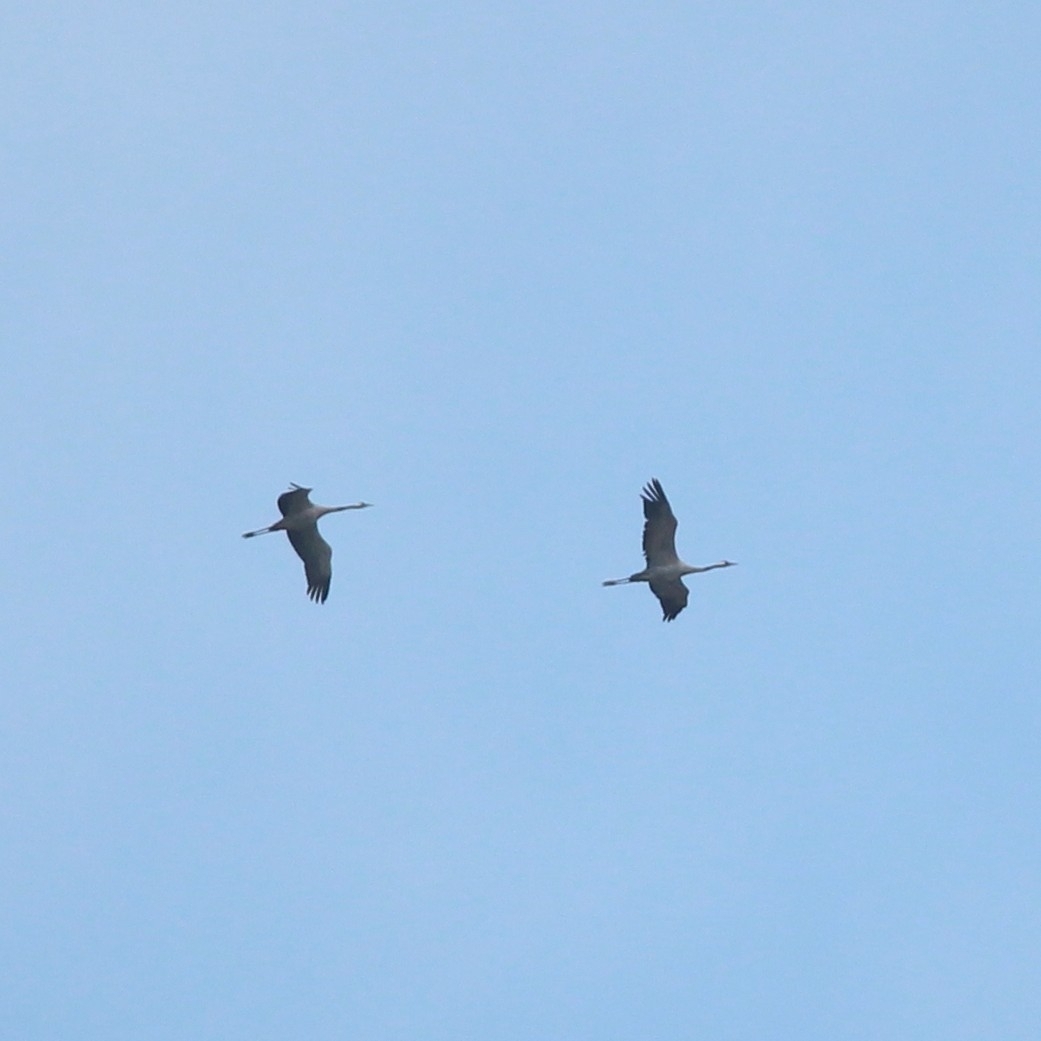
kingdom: Animalia
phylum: Chordata
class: Aves
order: Gruiformes
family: Gruidae
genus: Grus
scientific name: Grus grus
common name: Common crane
